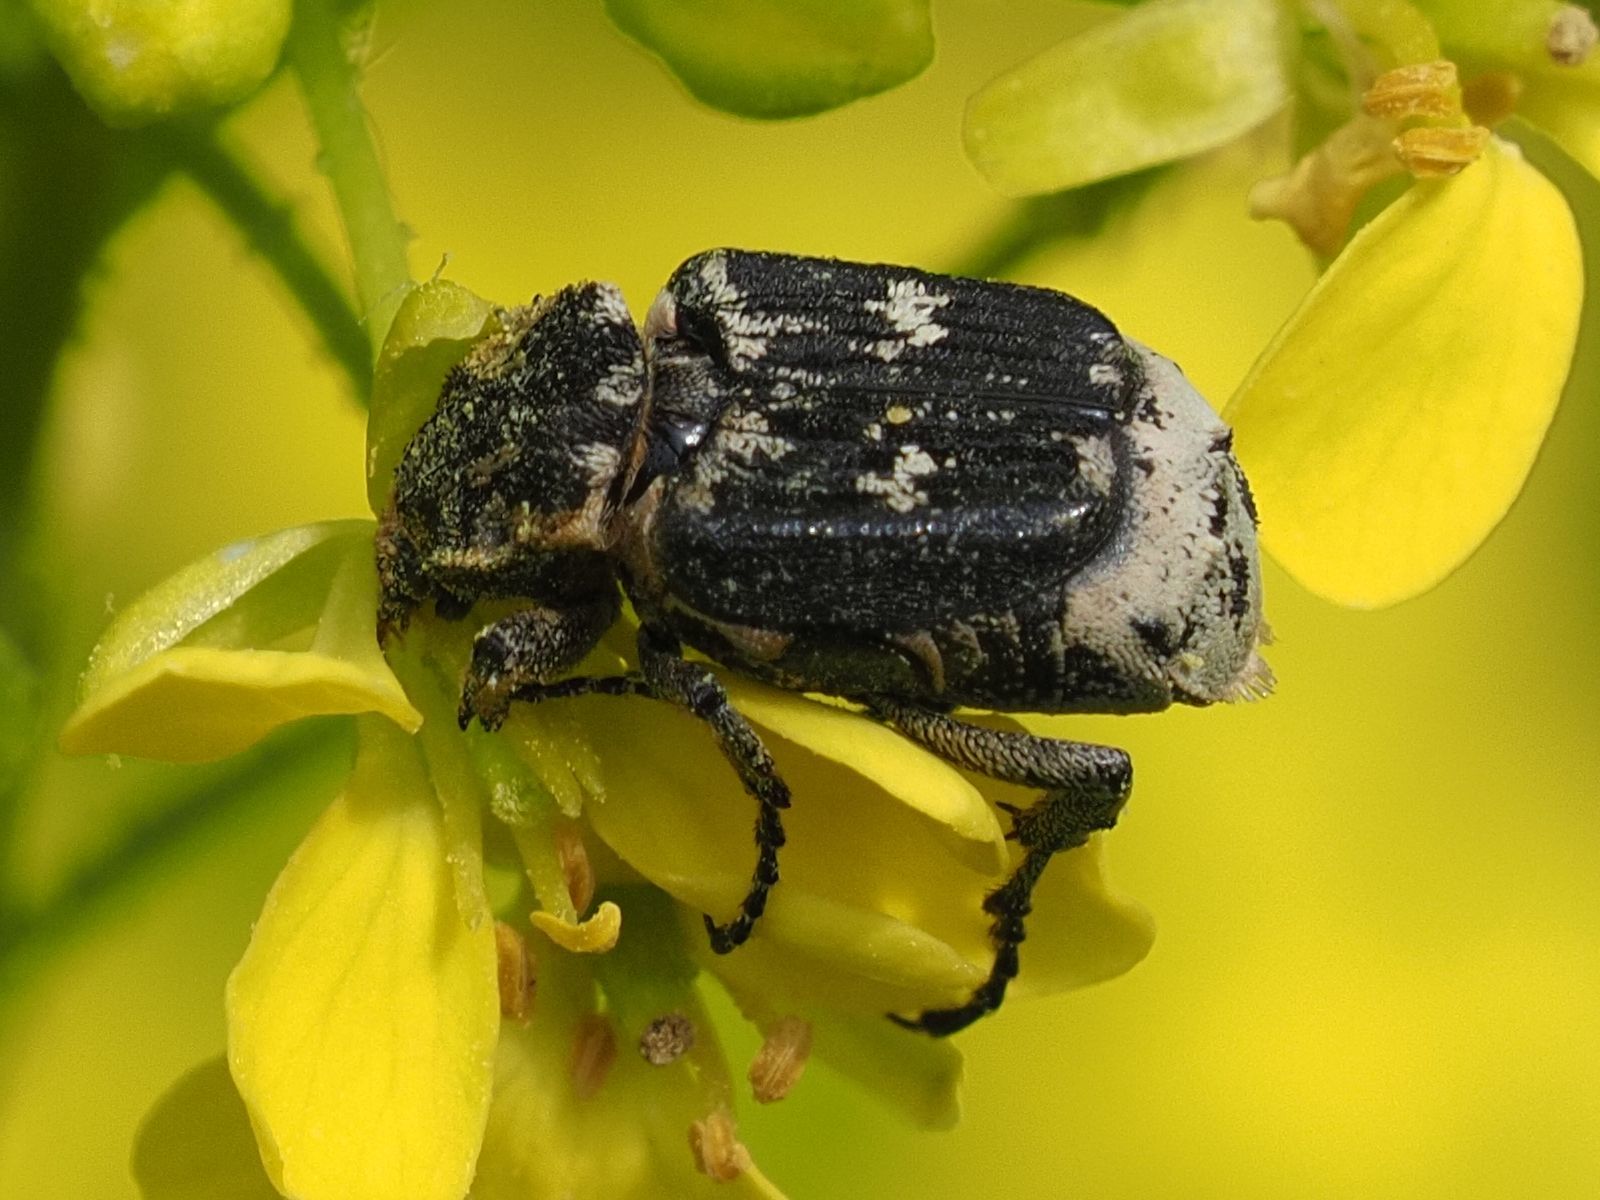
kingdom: Animalia
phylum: Arthropoda
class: Insecta
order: Coleoptera
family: Scarabaeidae
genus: Valgus
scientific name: Valgus hemipterus
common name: Bug flower chafer
